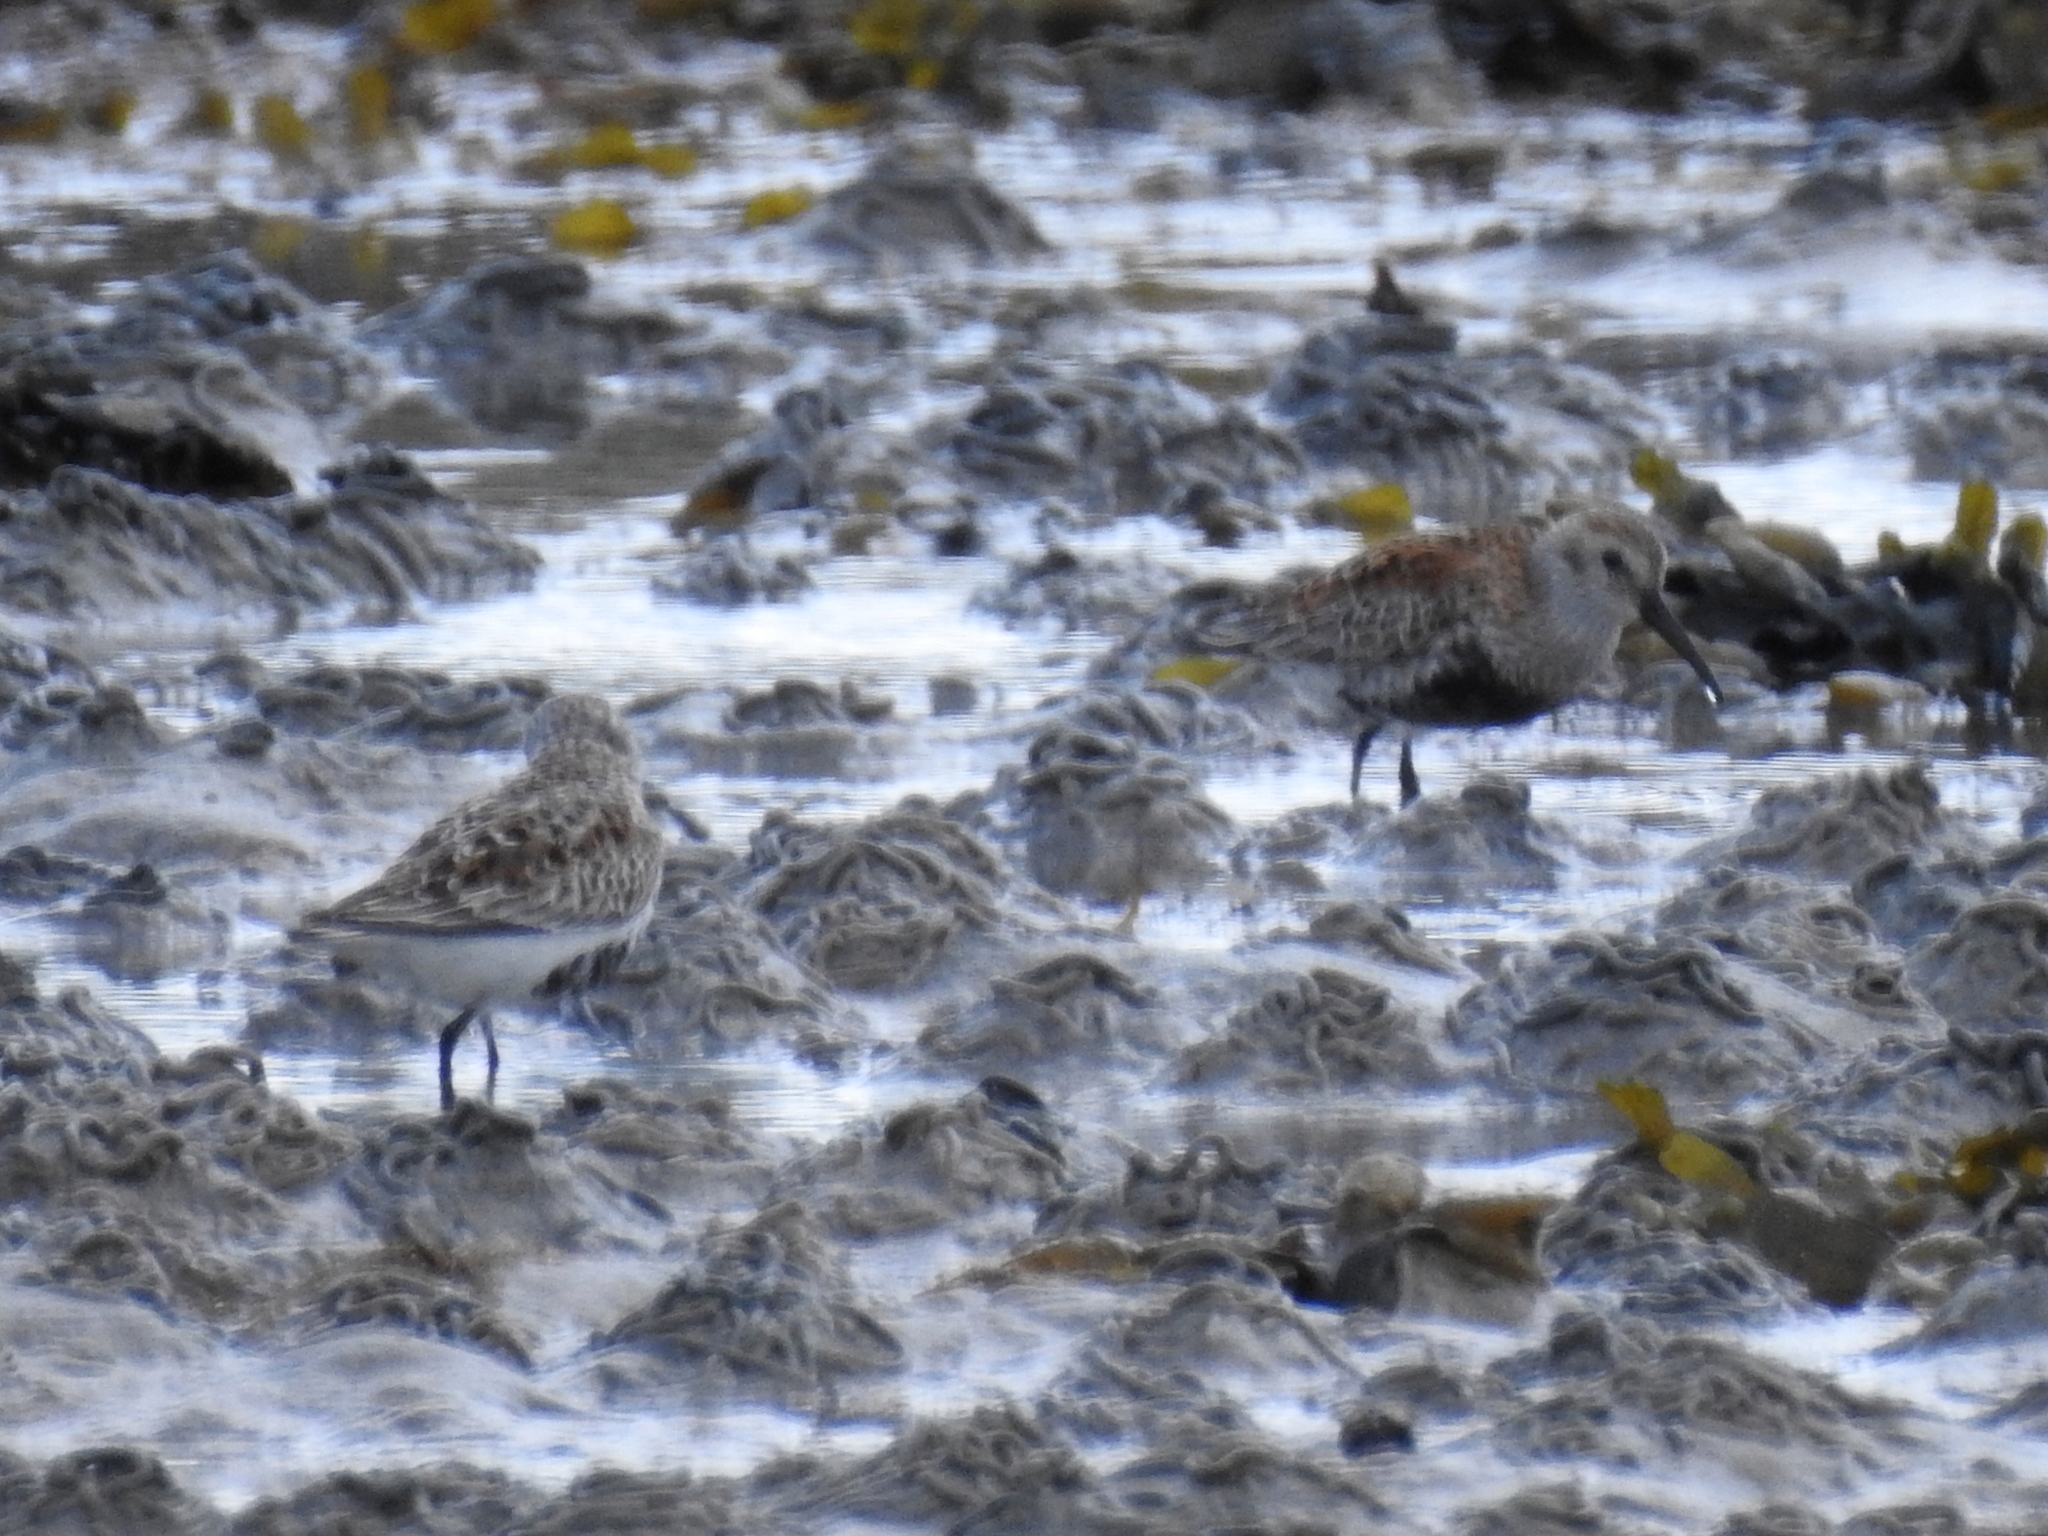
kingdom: Animalia
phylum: Chordata
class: Aves
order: Charadriiformes
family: Scolopacidae
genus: Calidris
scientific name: Calidris alpina
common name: Dunlin
